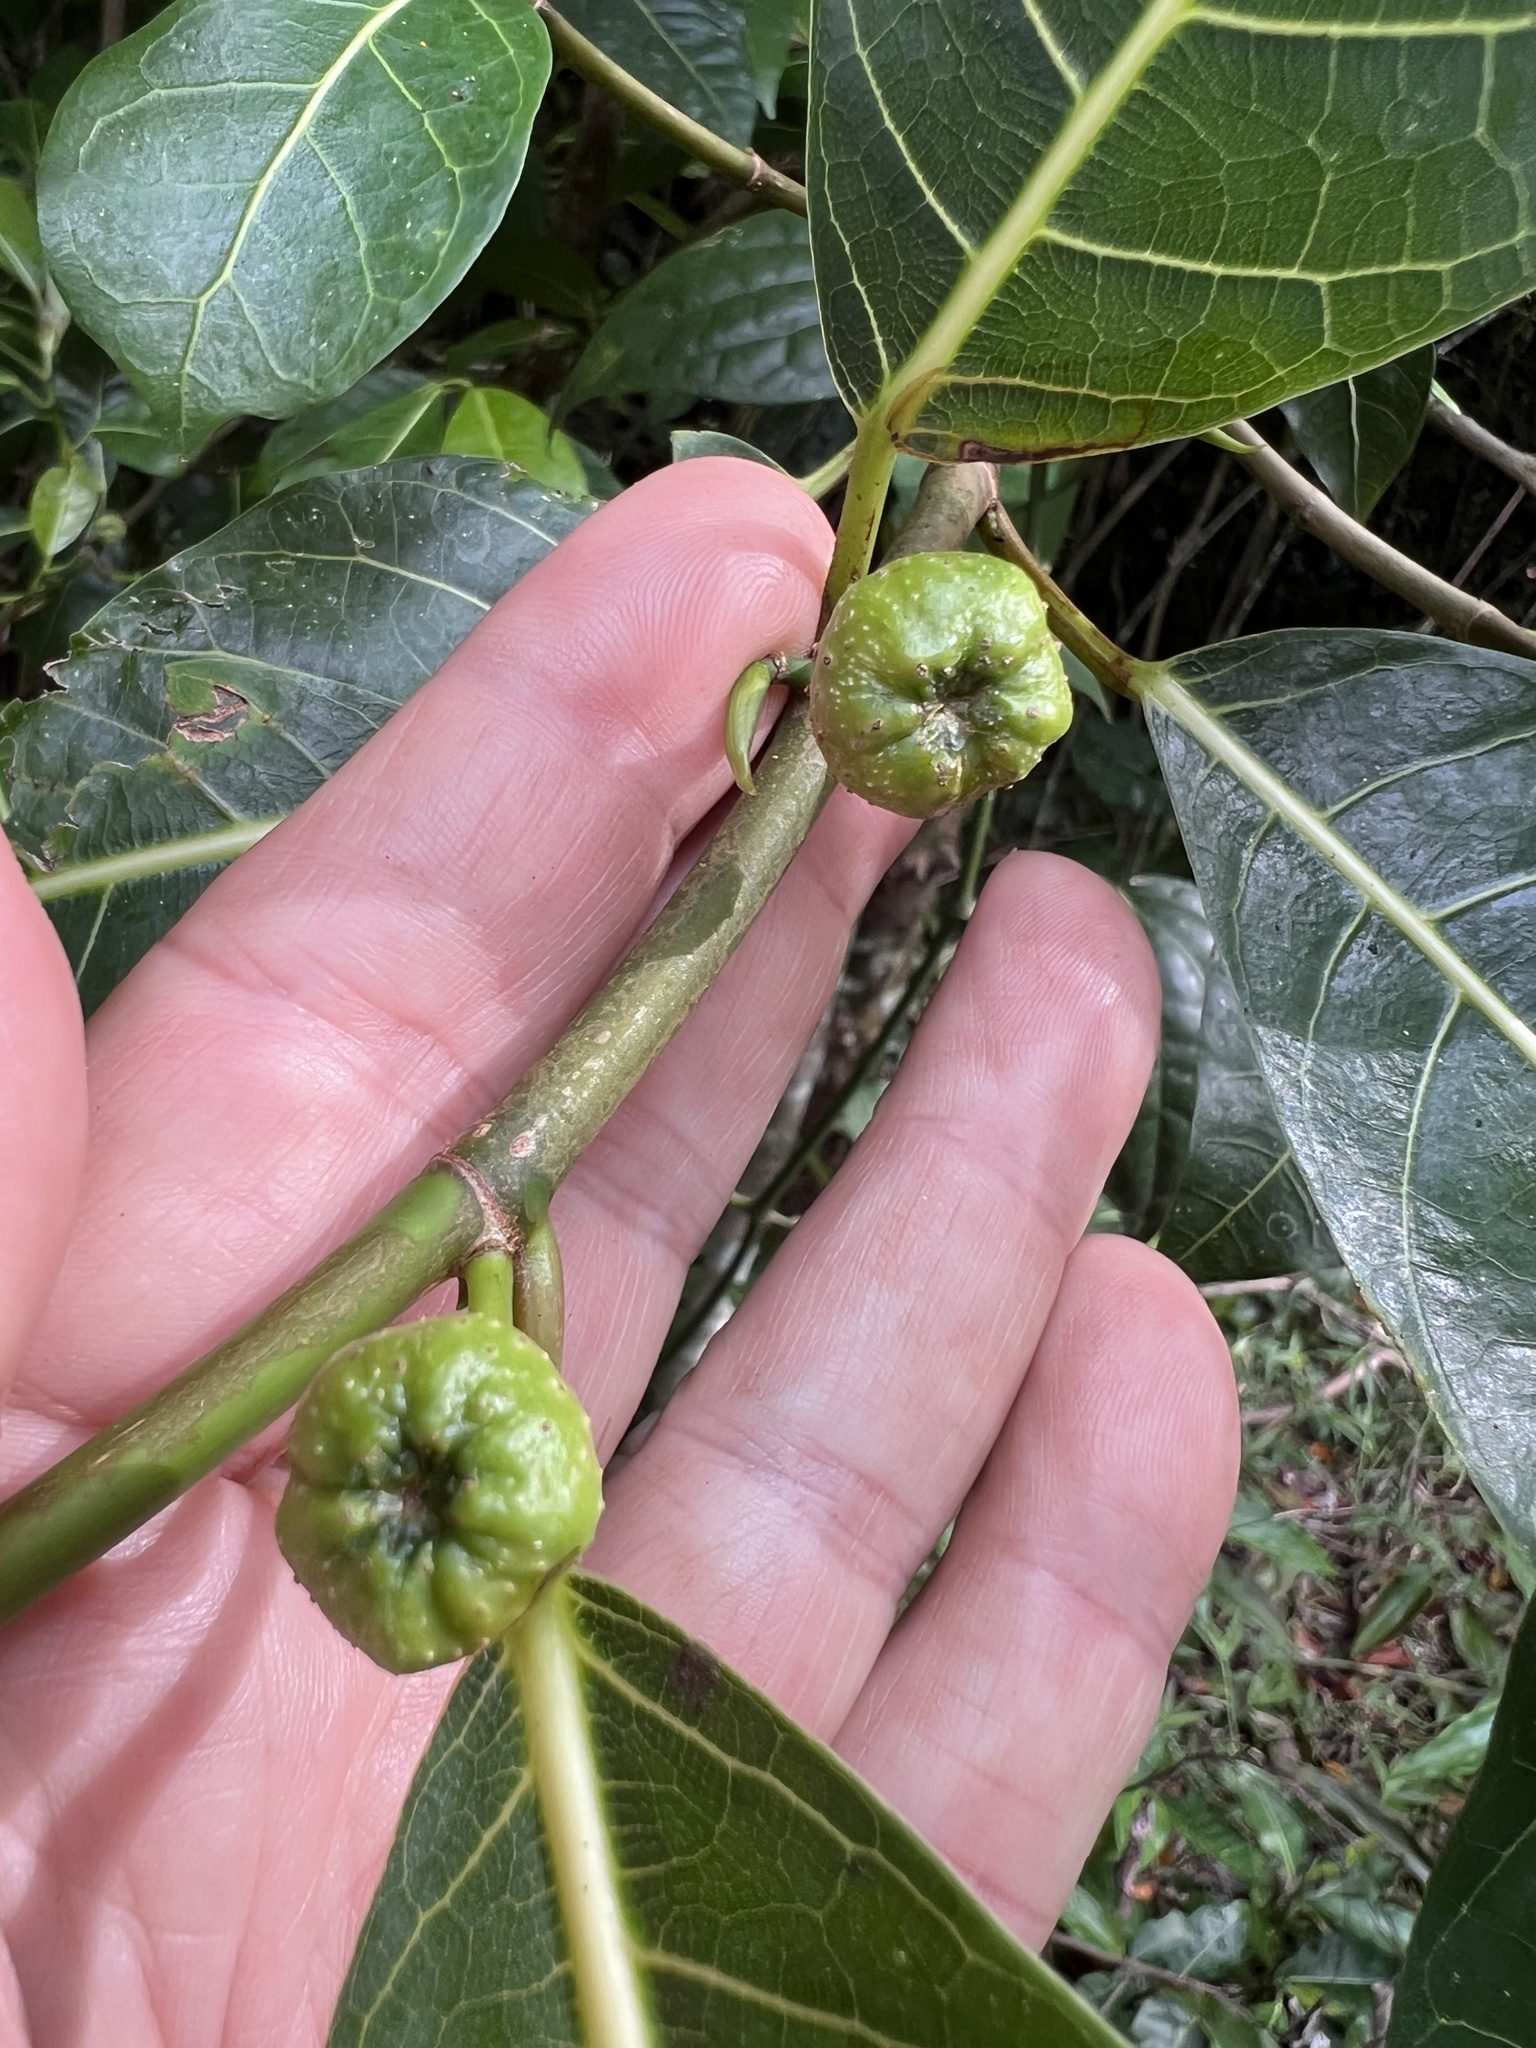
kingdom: Plantae
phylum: Tracheophyta
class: Magnoliopsida
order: Rosales
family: Moraceae
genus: Ficus
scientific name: Ficus septica
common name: Septic fig
